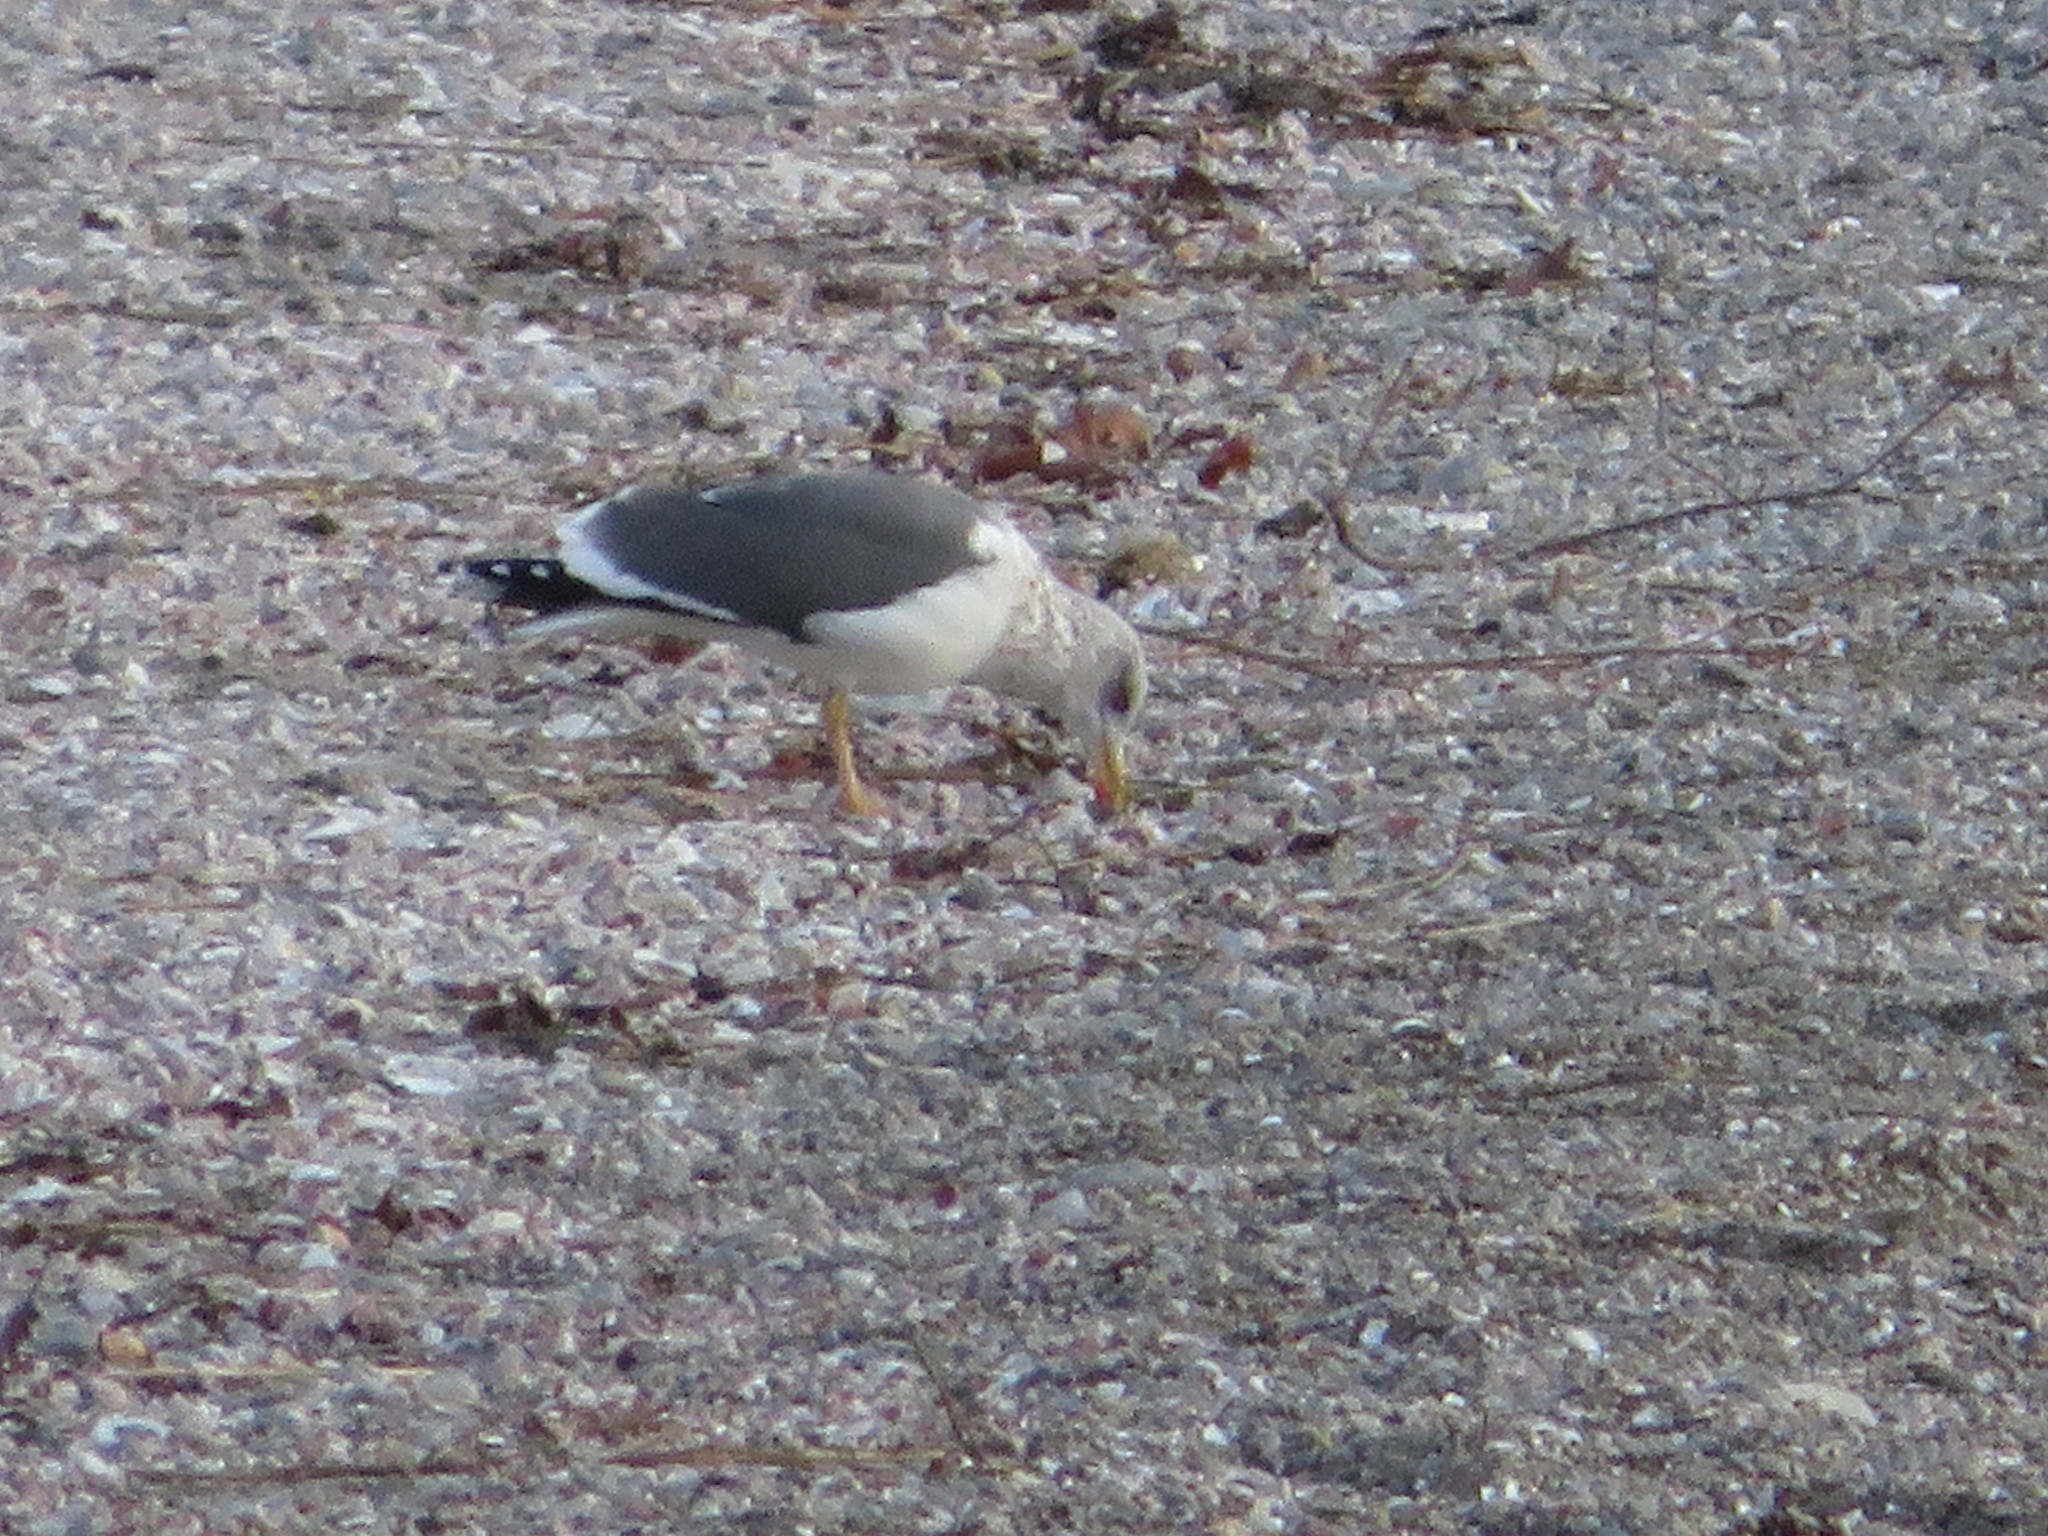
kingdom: Animalia
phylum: Chordata
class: Aves
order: Charadriiformes
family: Laridae
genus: Larus
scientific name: Larus fuscus
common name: Lesser black-backed gull
